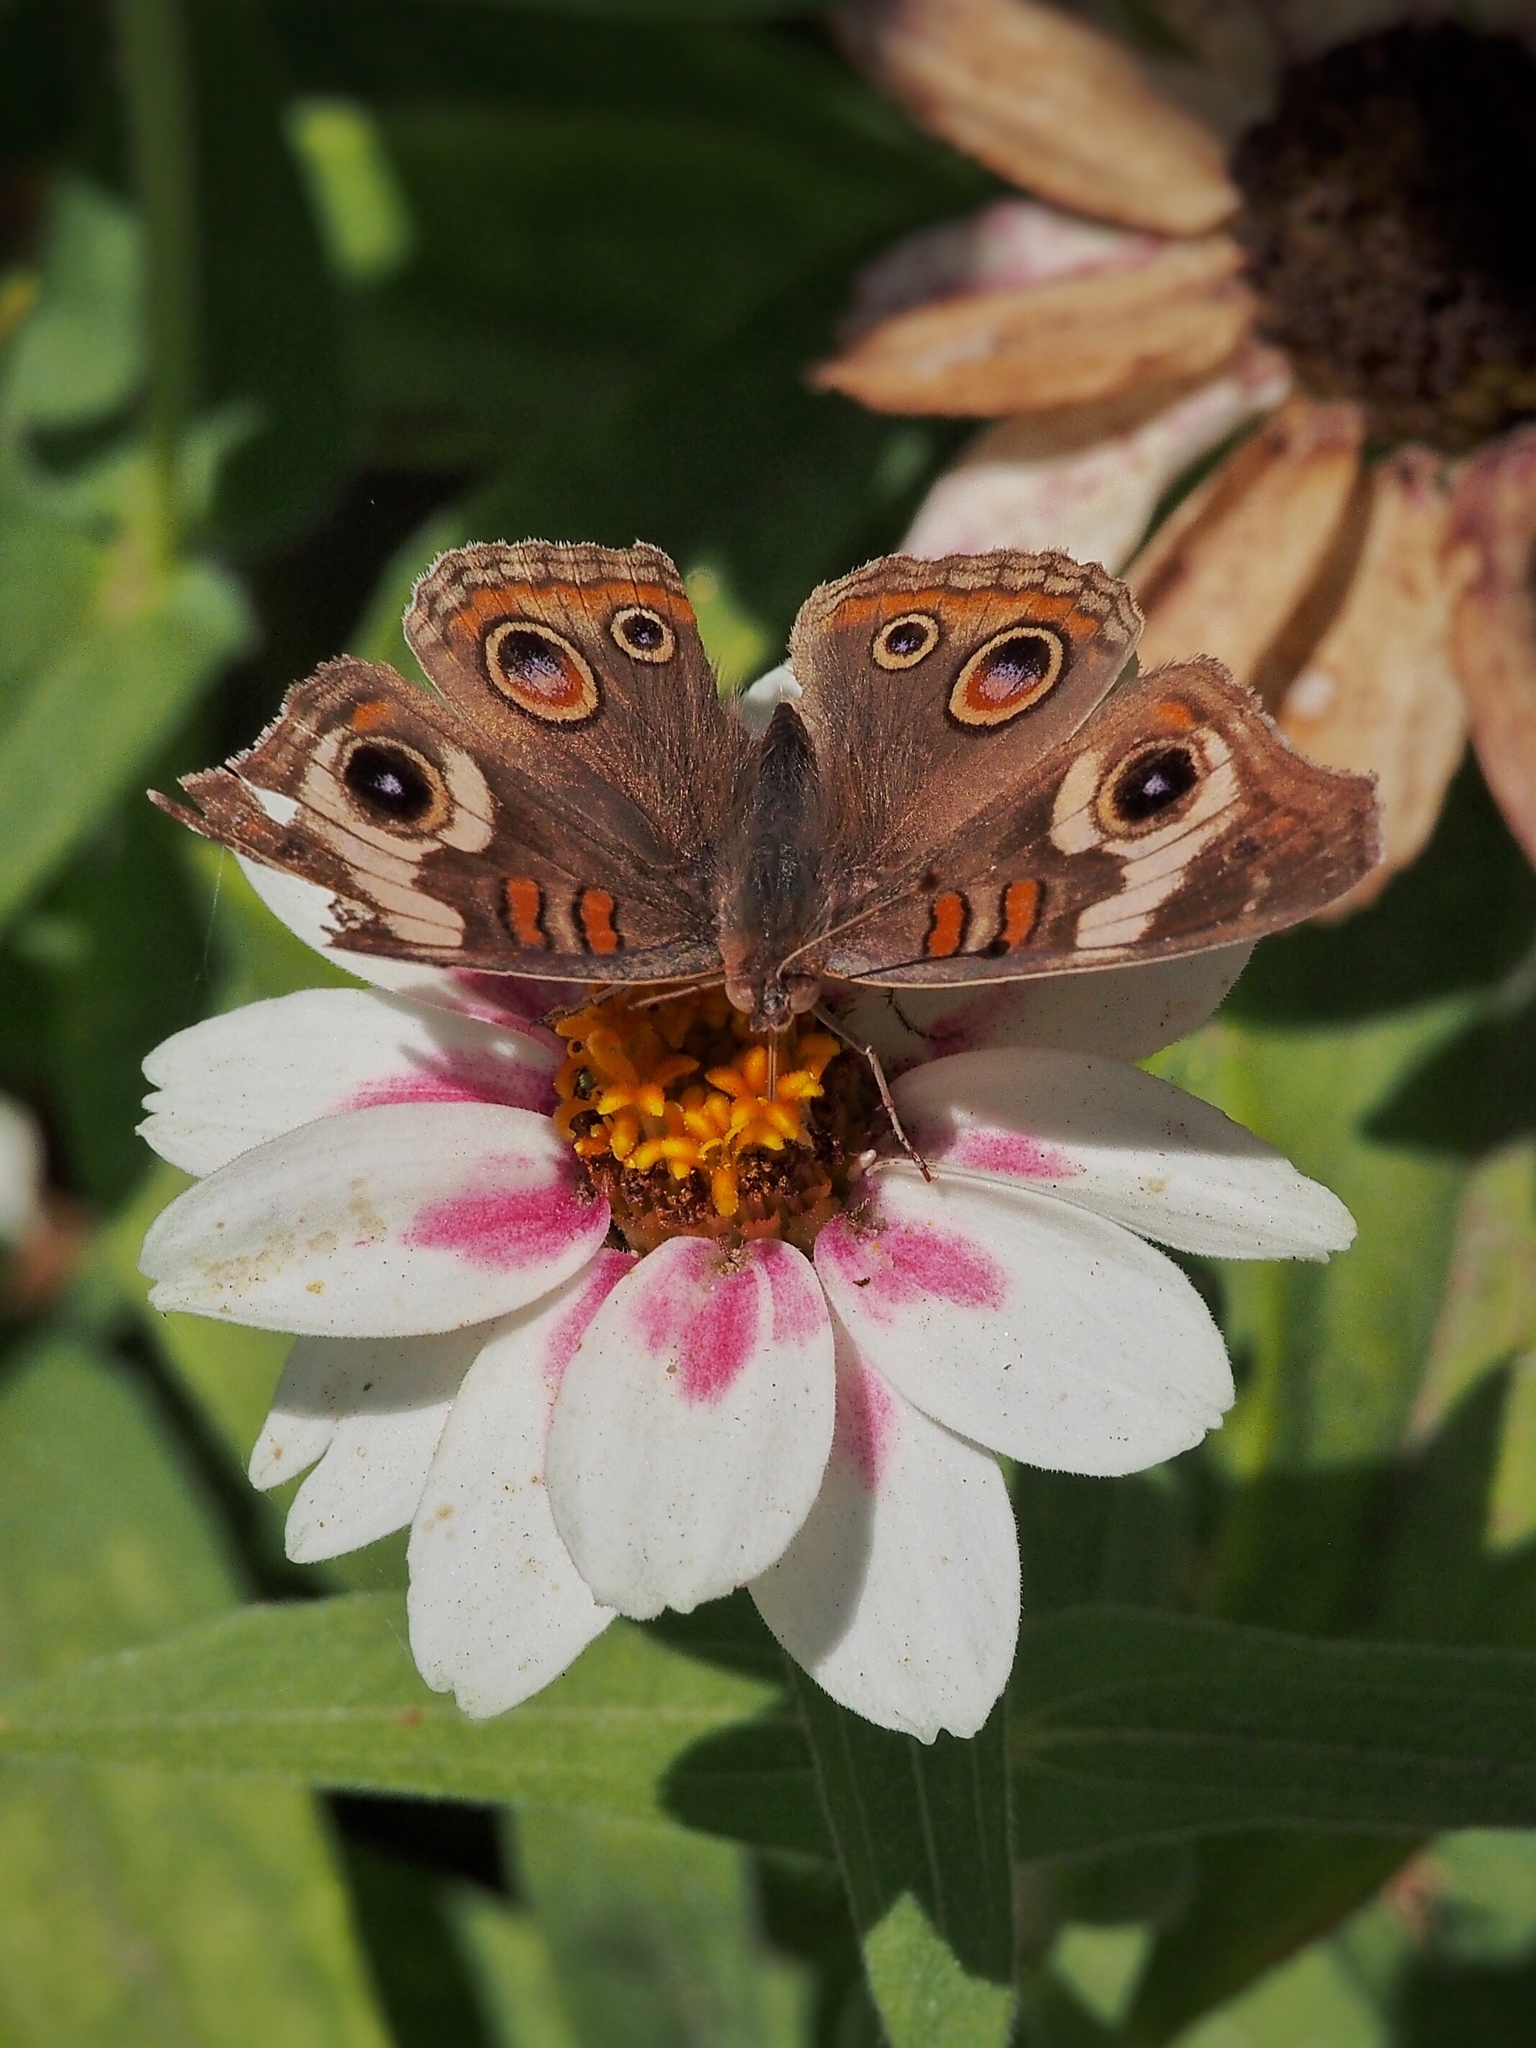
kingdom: Animalia
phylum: Arthropoda
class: Insecta
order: Lepidoptera
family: Nymphalidae
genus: Junonia
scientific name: Junonia grisea
